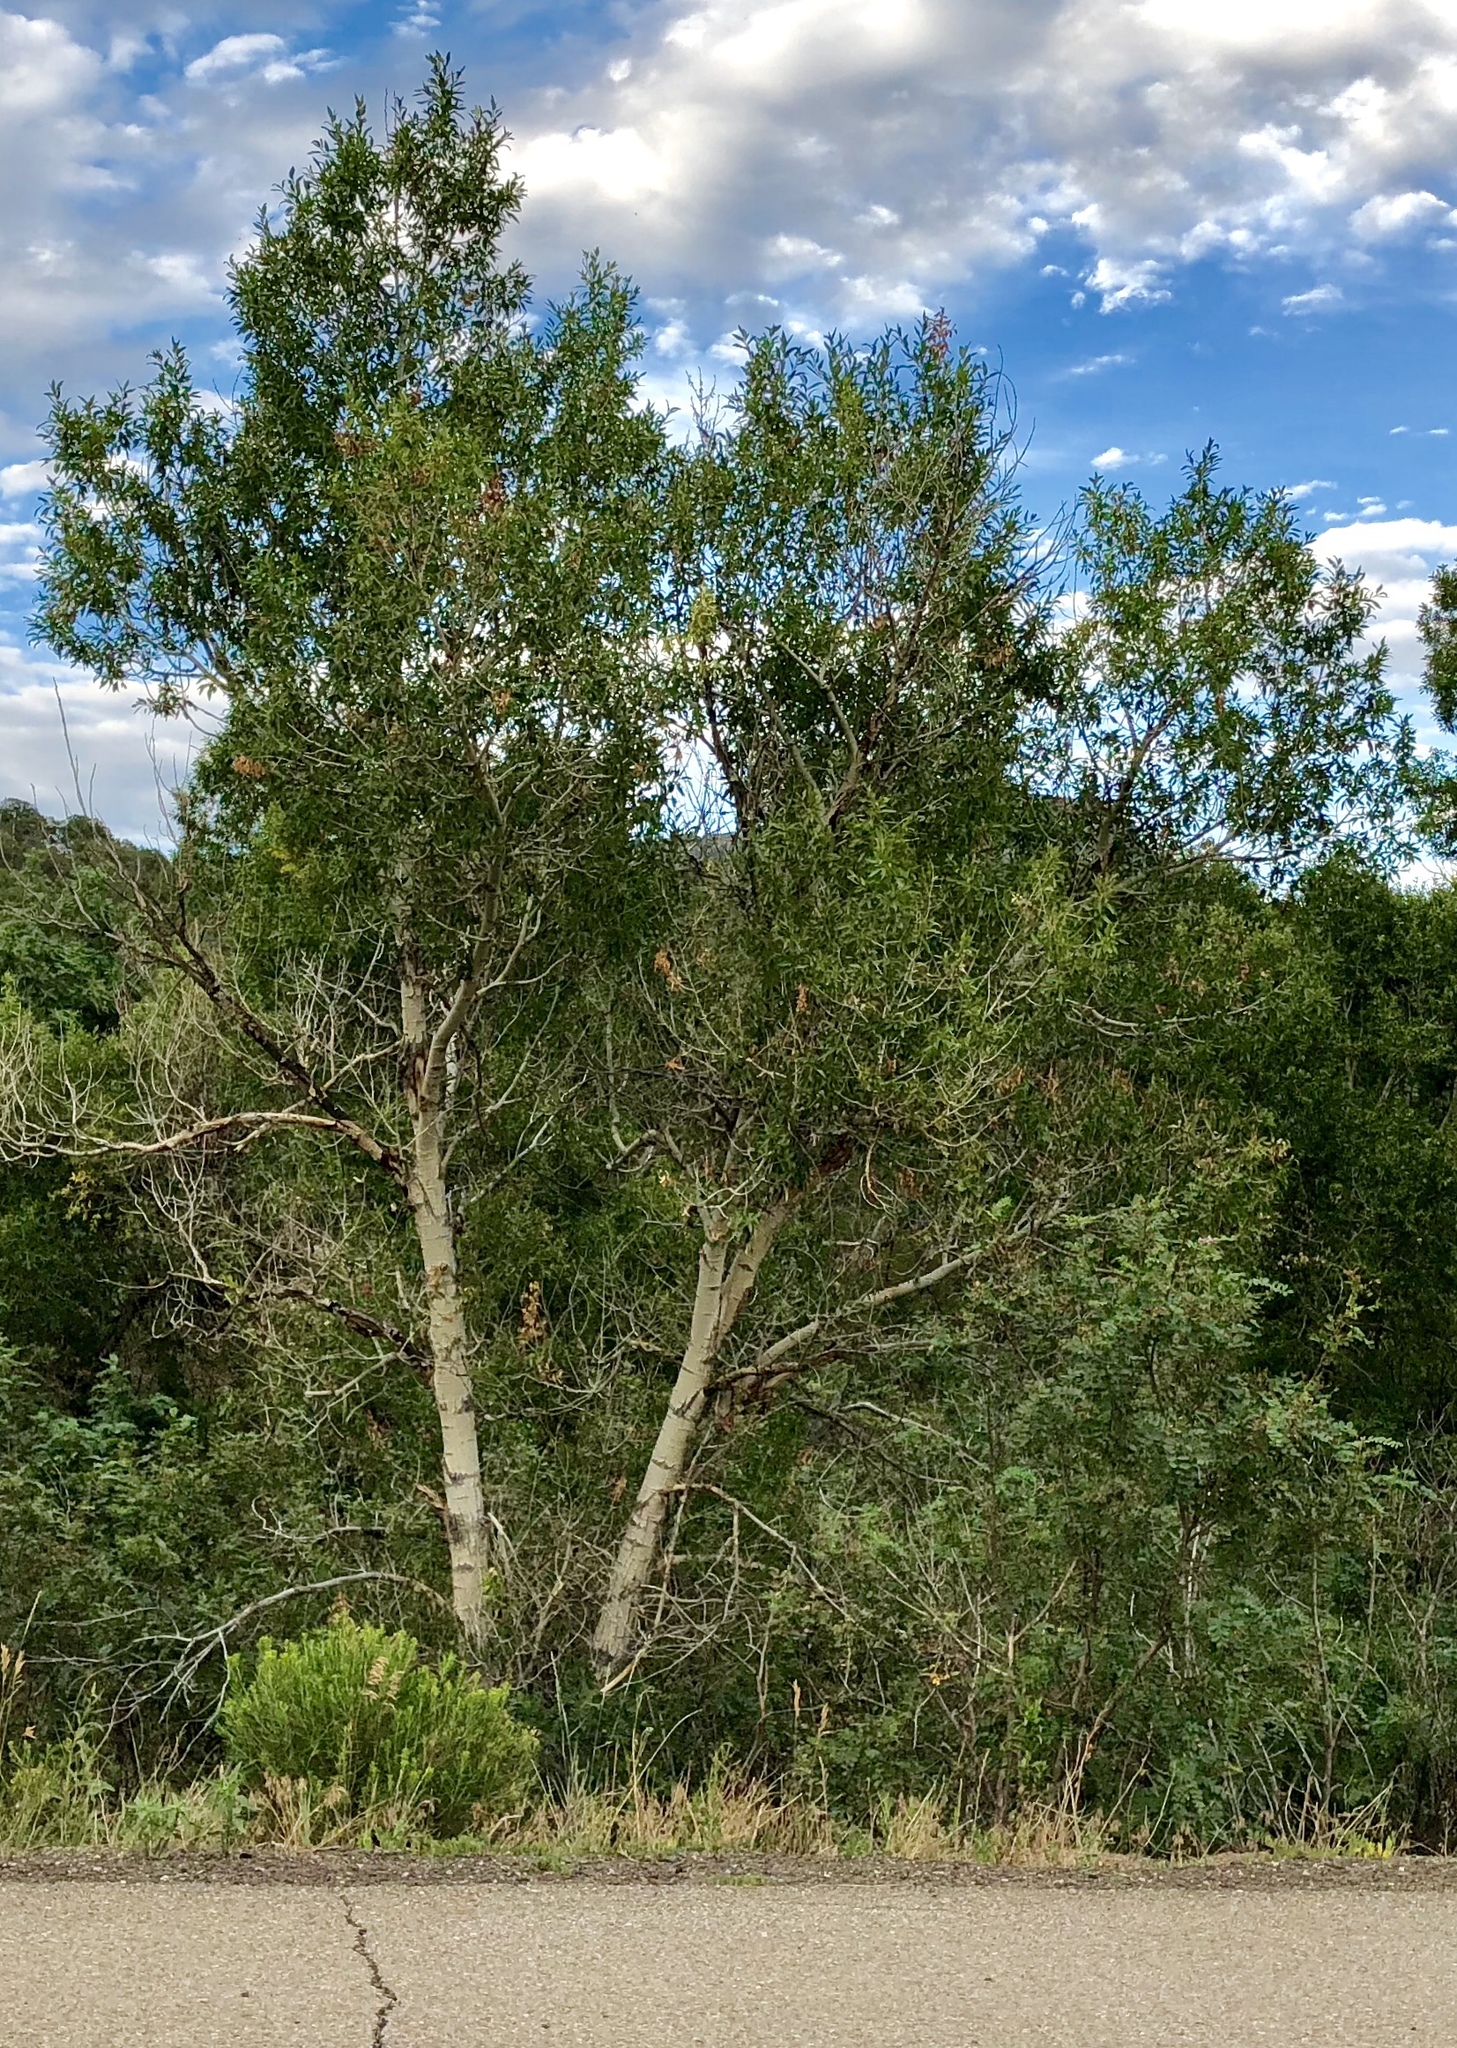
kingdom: Plantae
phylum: Tracheophyta
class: Magnoliopsida
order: Malpighiales
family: Salicaceae
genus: Populus
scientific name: Populus angustifolia
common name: Willow cottonwood
